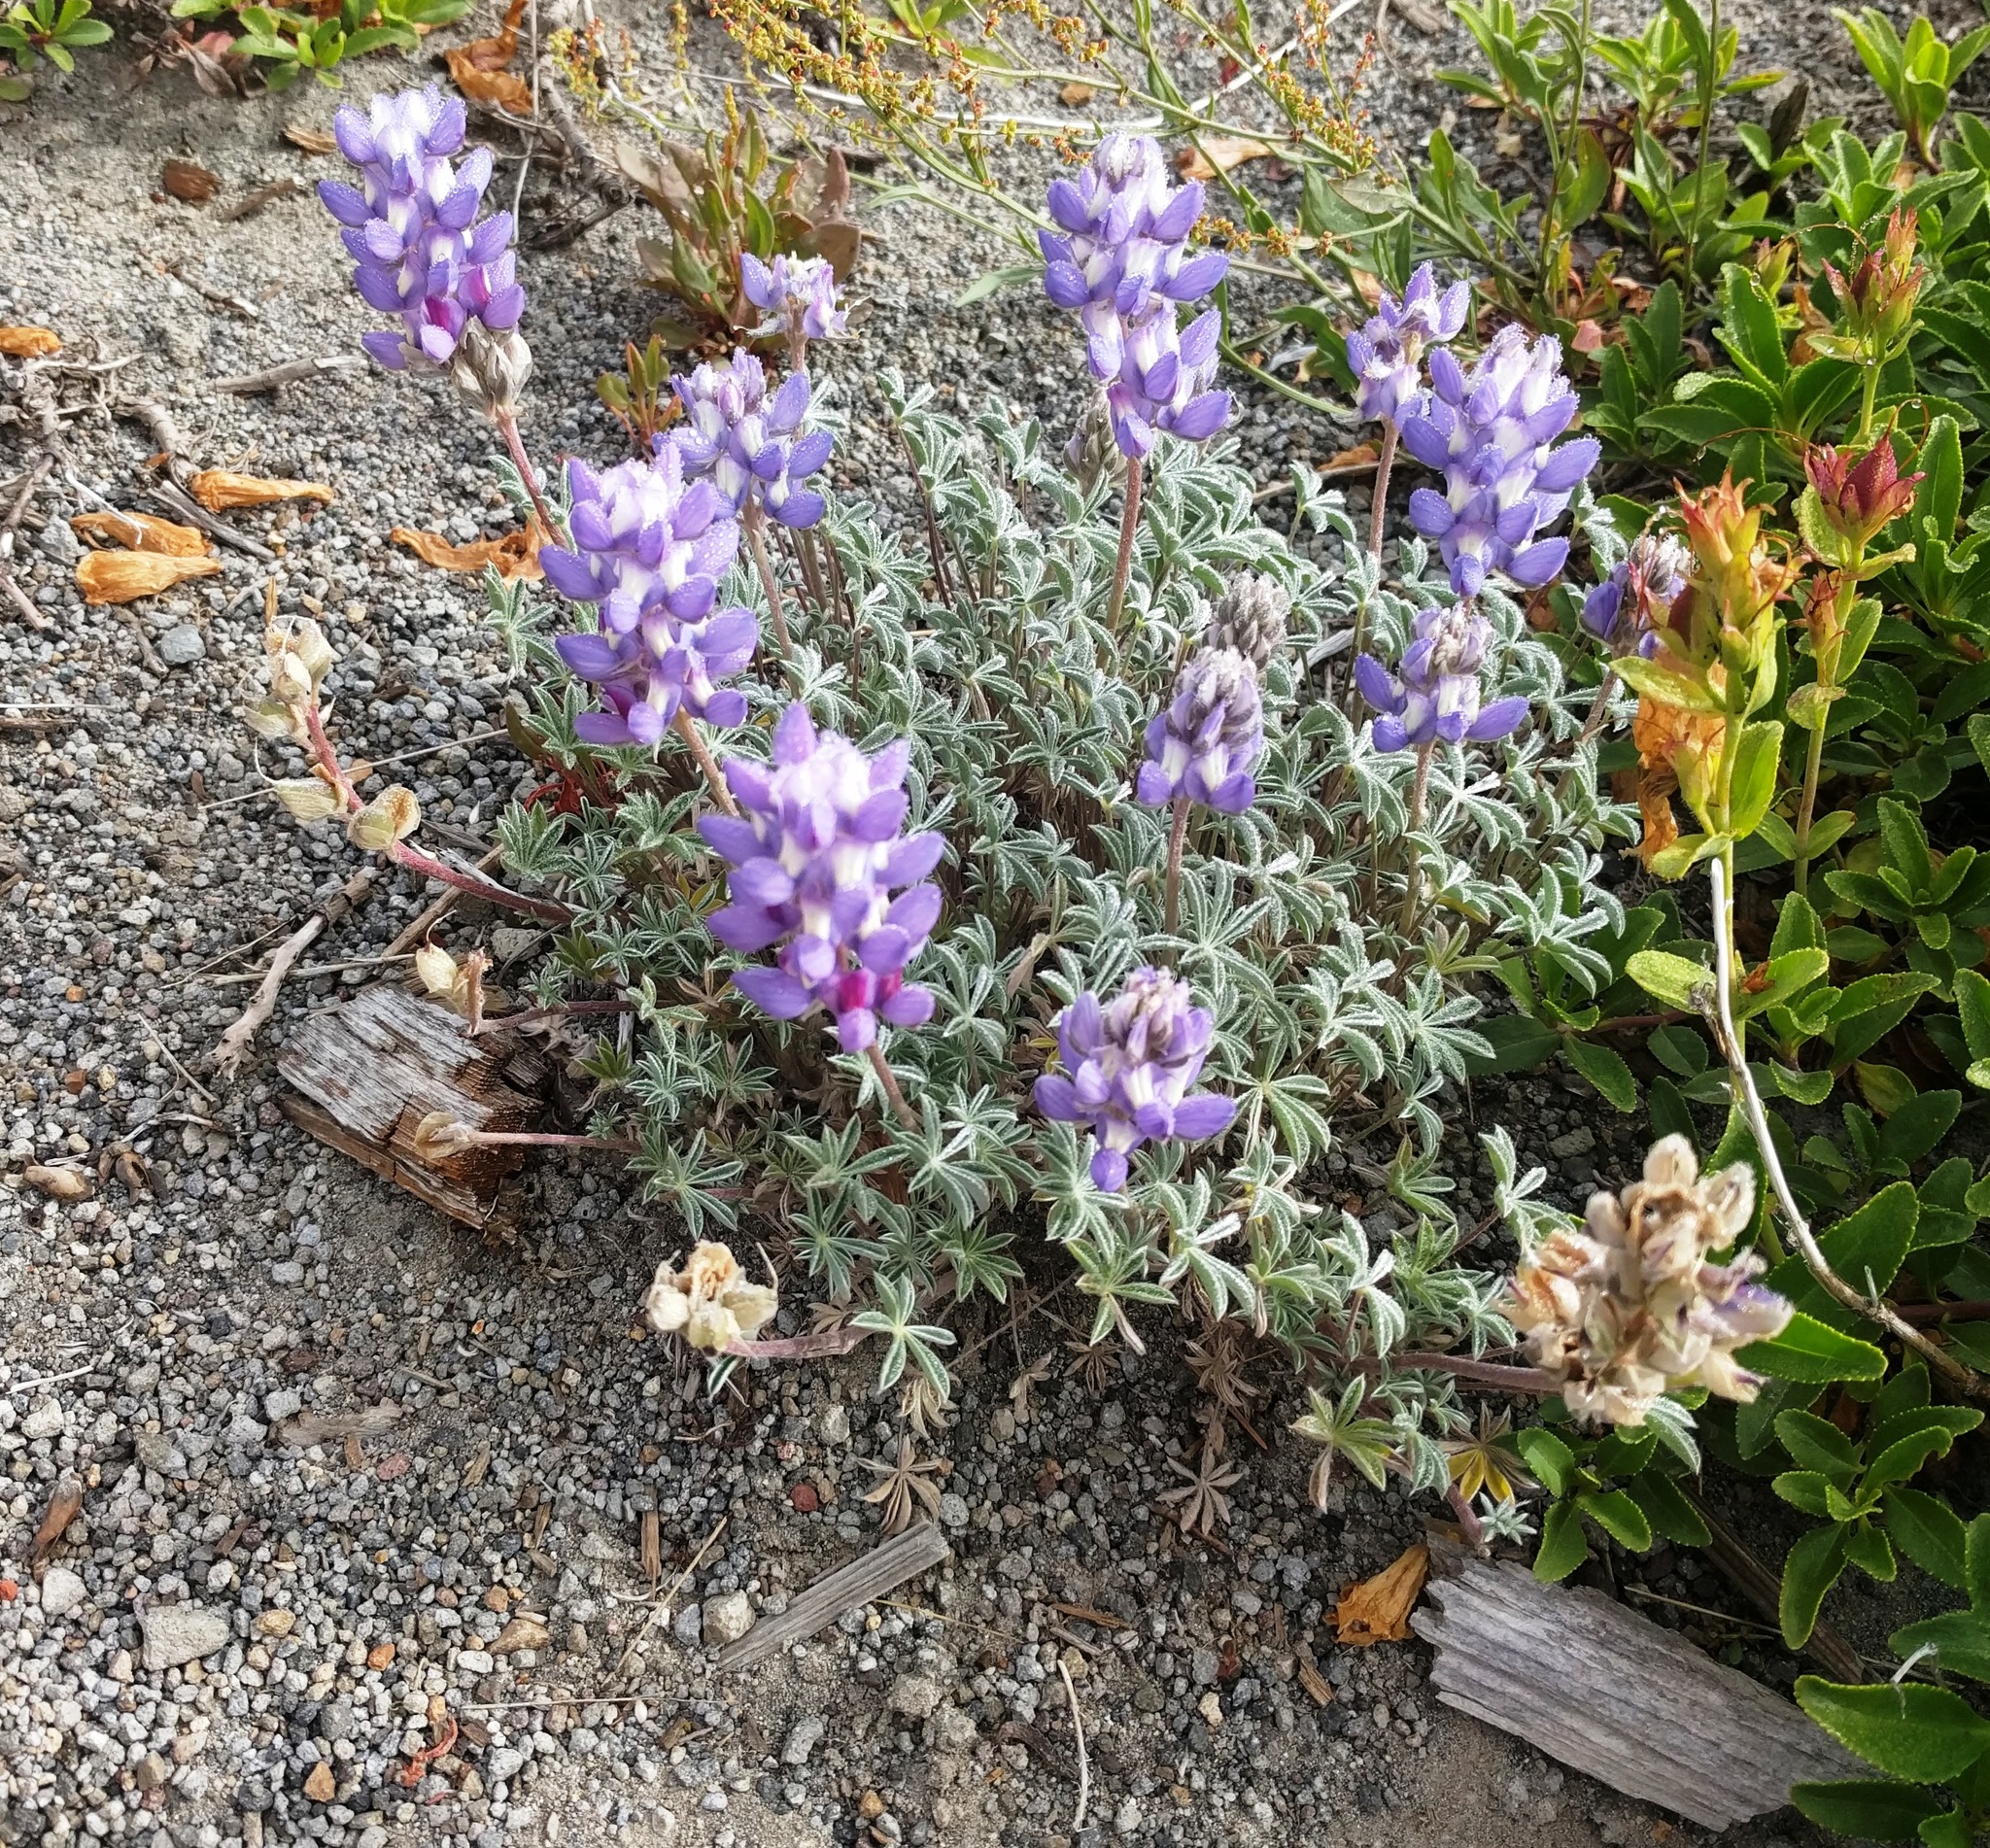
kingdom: Plantae
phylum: Tracheophyta
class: Magnoliopsida
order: Fabales
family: Fabaceae
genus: Lupinus
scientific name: Lupinus sellulus
